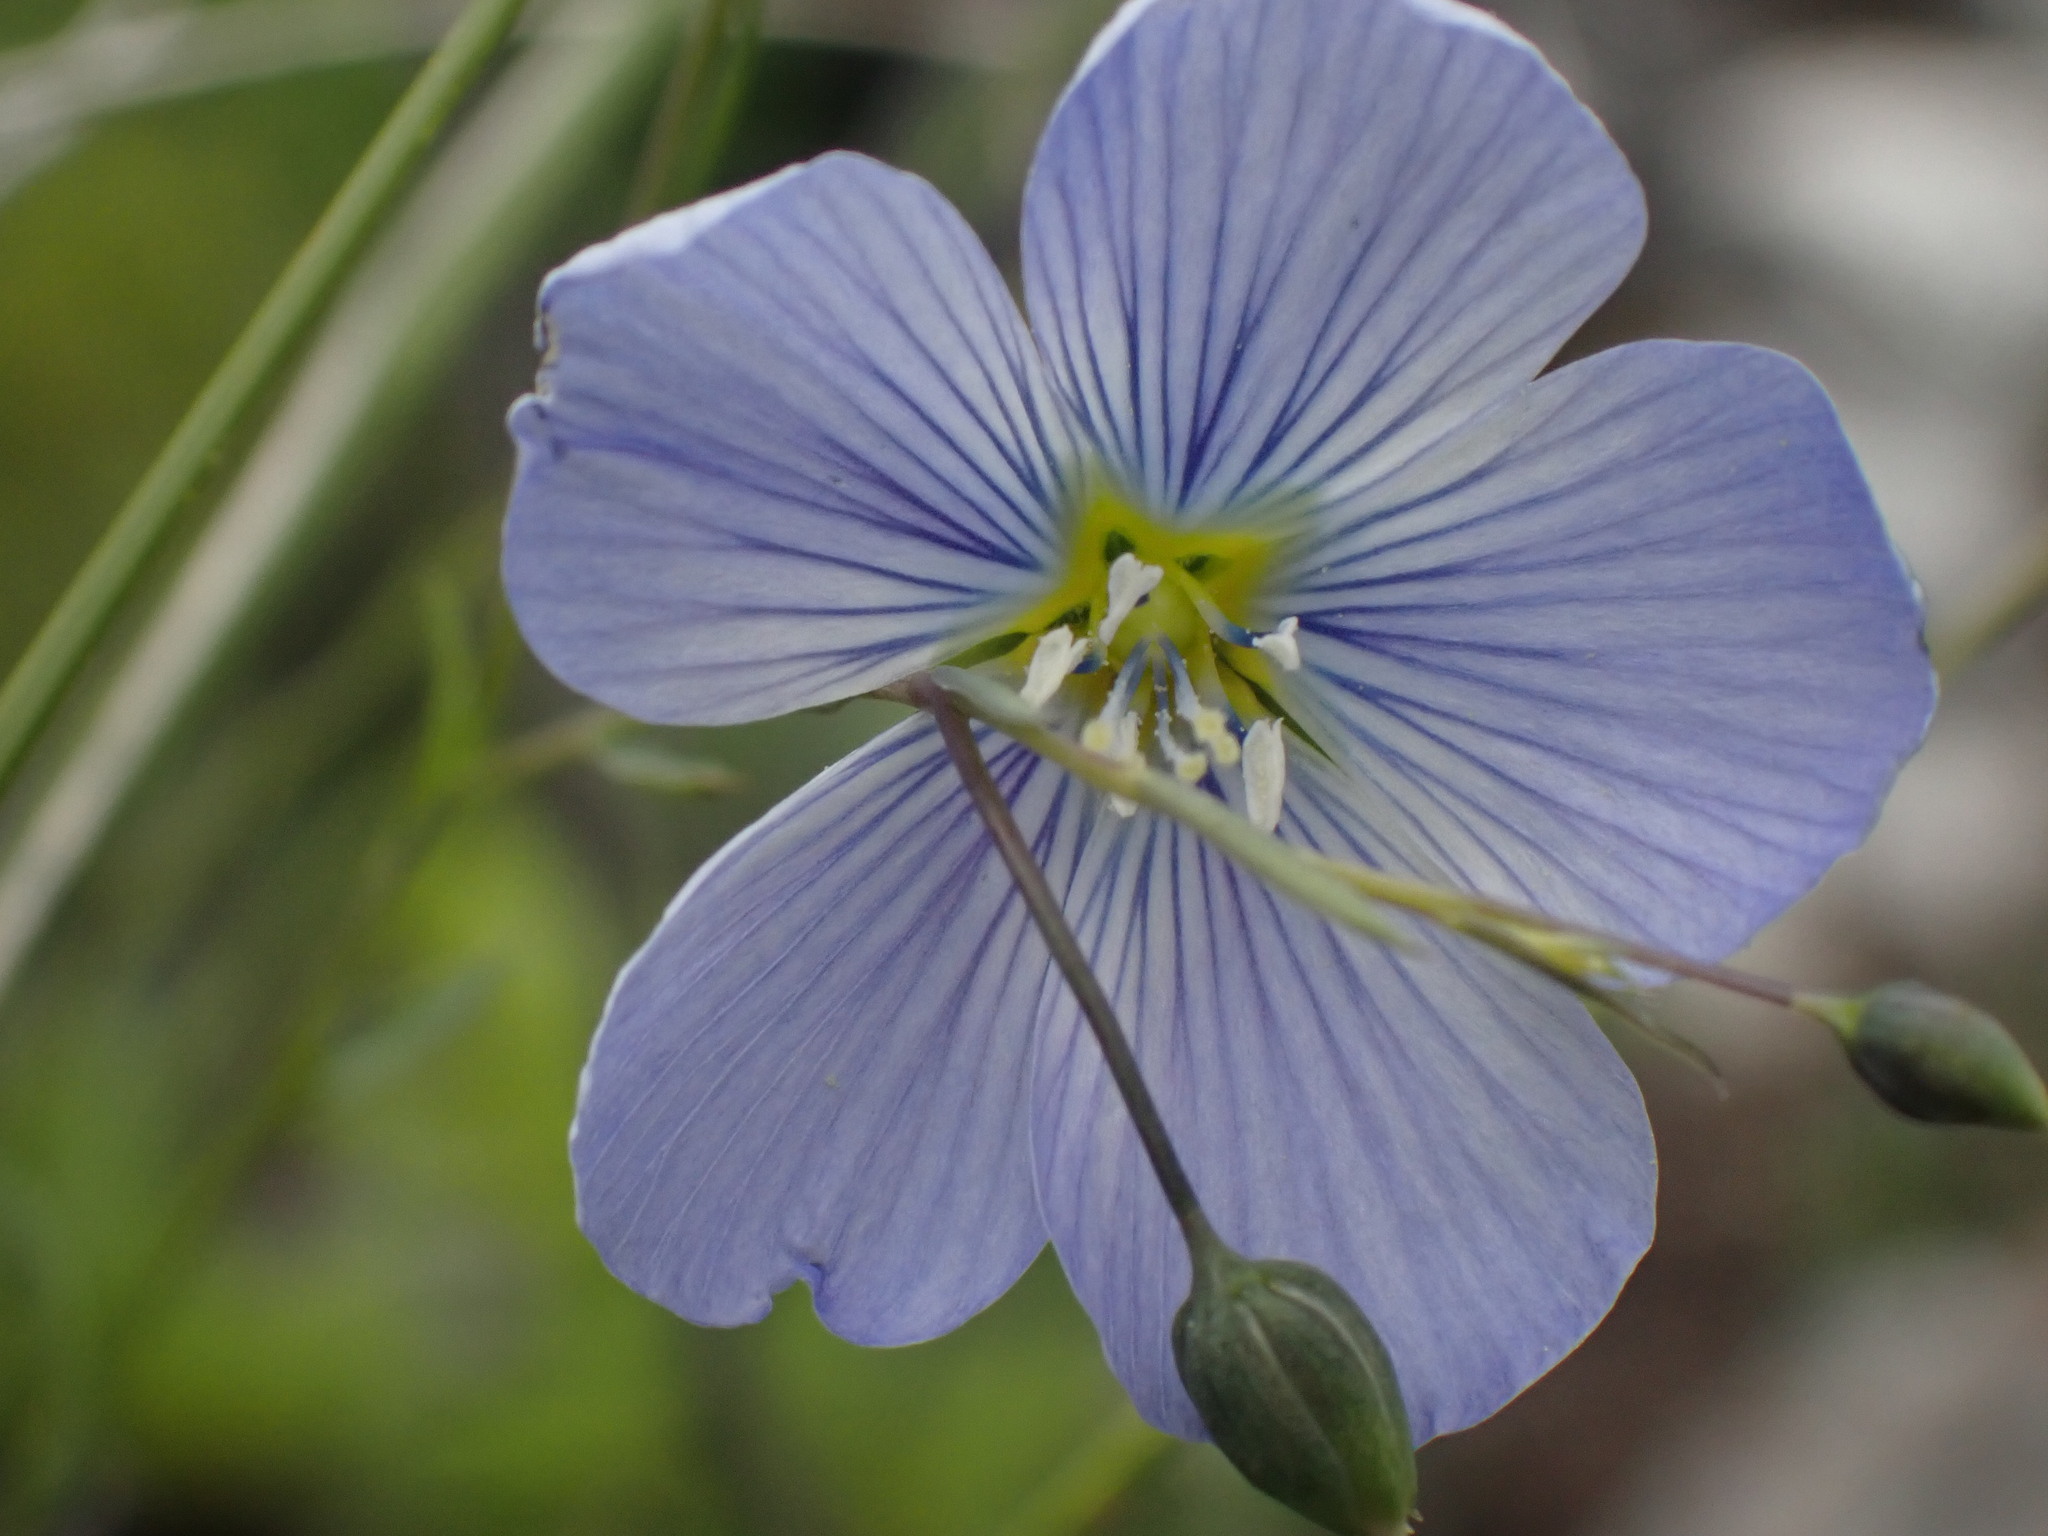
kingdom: Plantae
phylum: Tracheophyta
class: Magnoliopsida
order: Malpighiales
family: Linaceae
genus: Linum
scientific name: Linum lewisii
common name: Prairie flax
